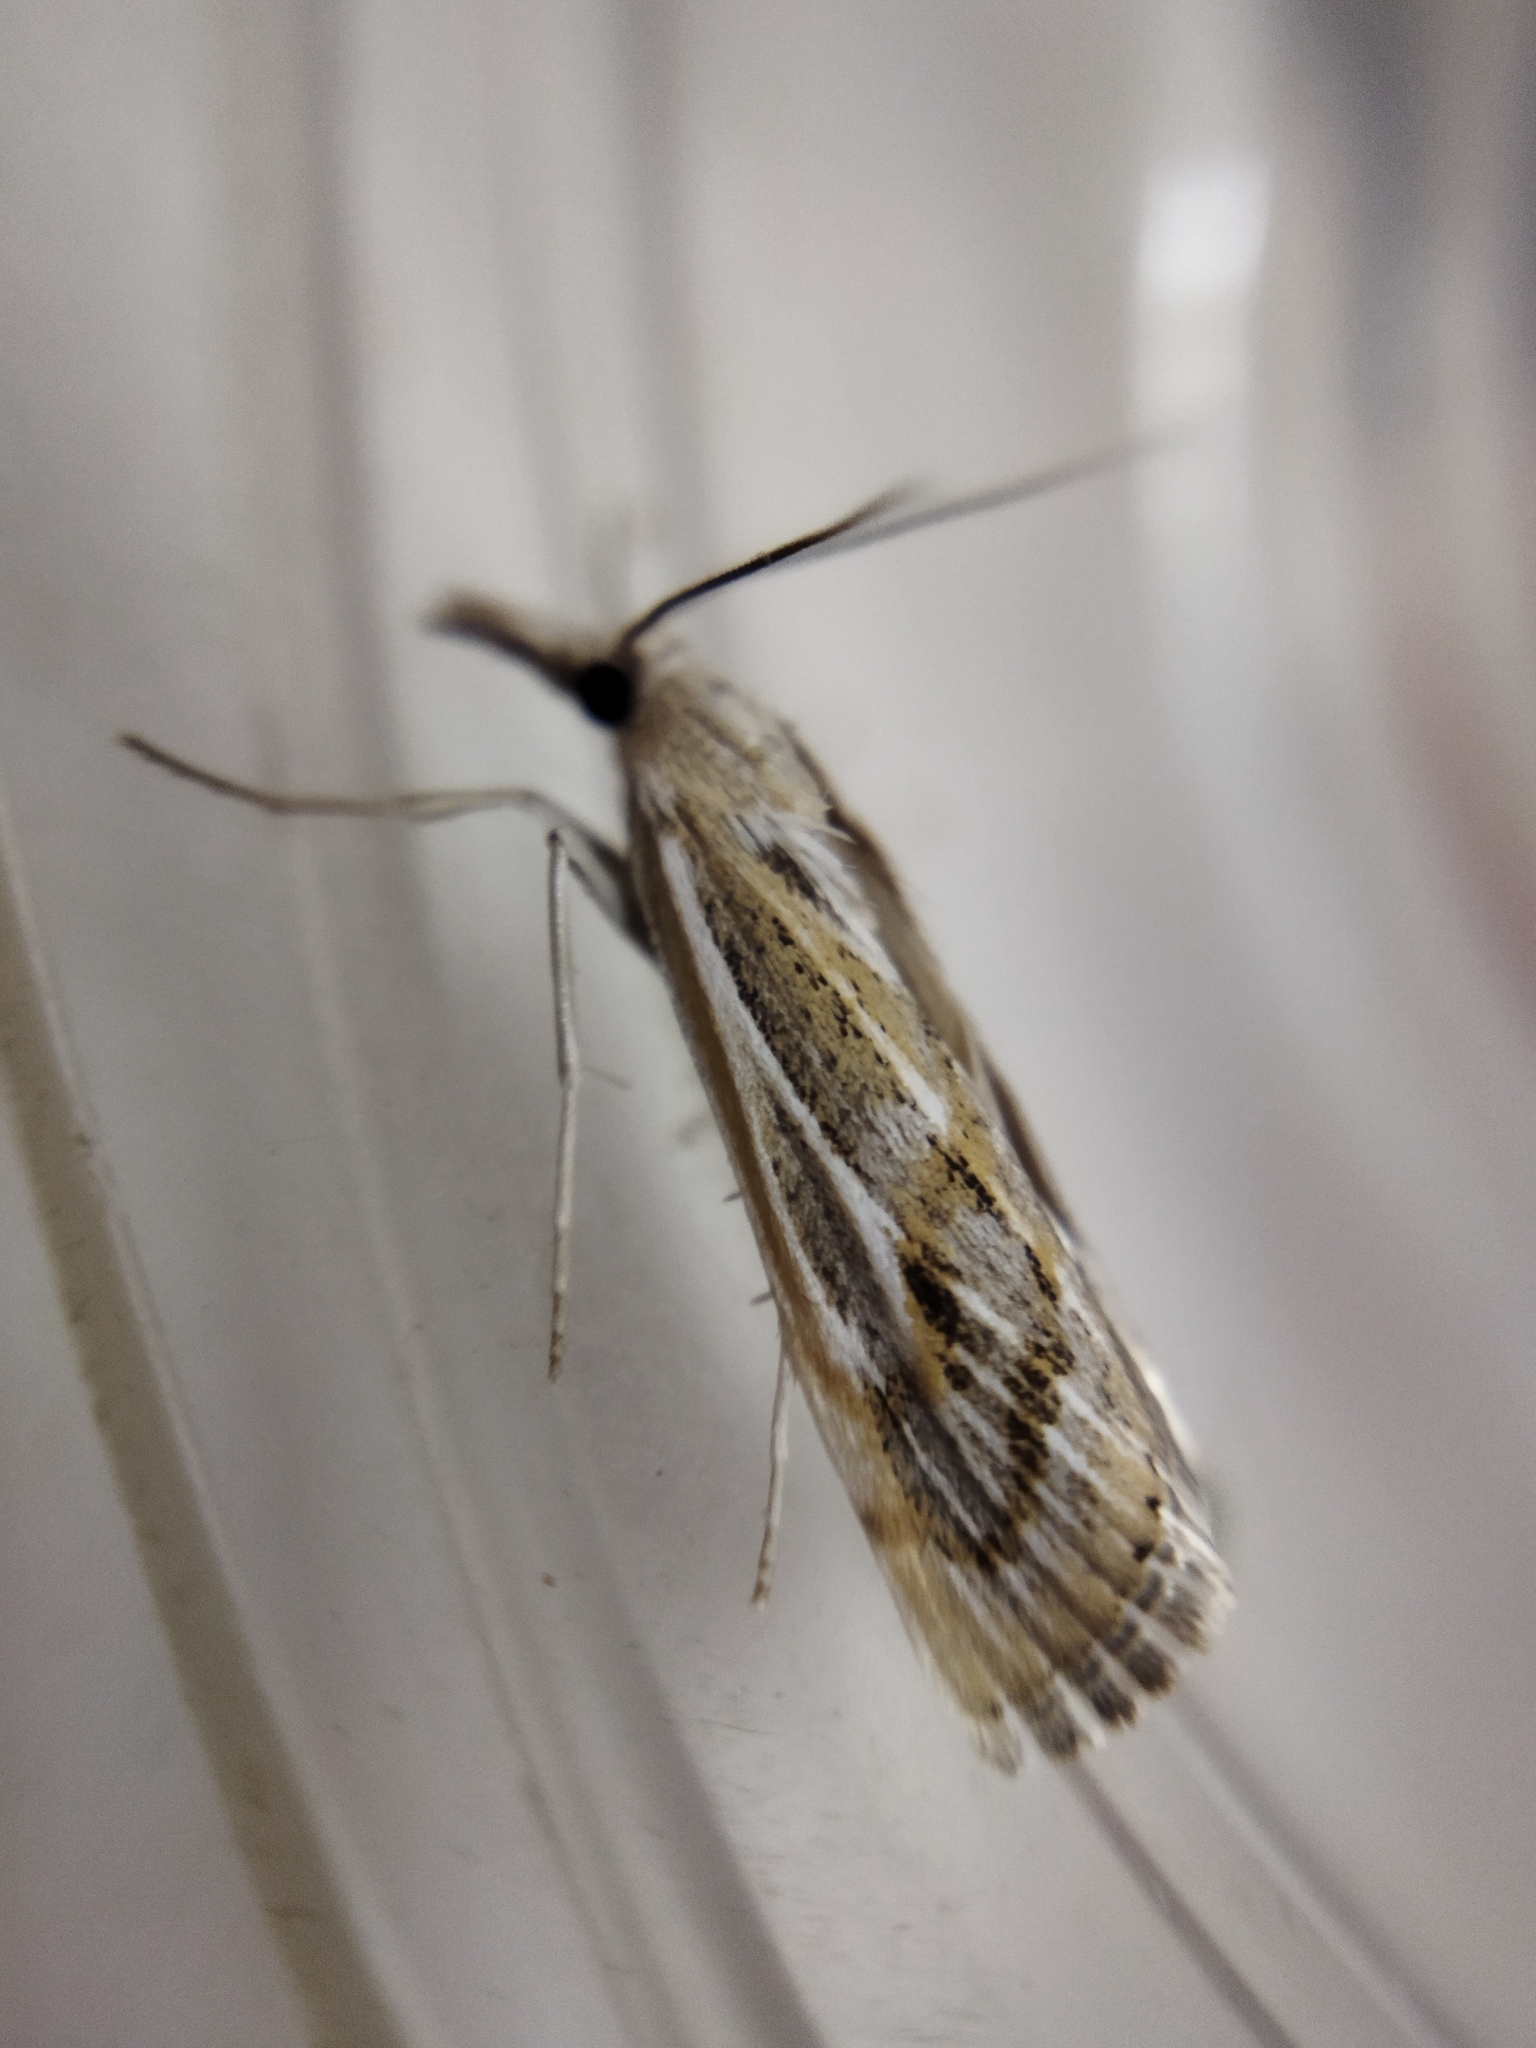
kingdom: Animalia
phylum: Arthropoda
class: Insecta
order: Lepidoptera
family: Crambidae
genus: Pediasia
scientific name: Pediasia fascelinella
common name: Banded grass-veneer
